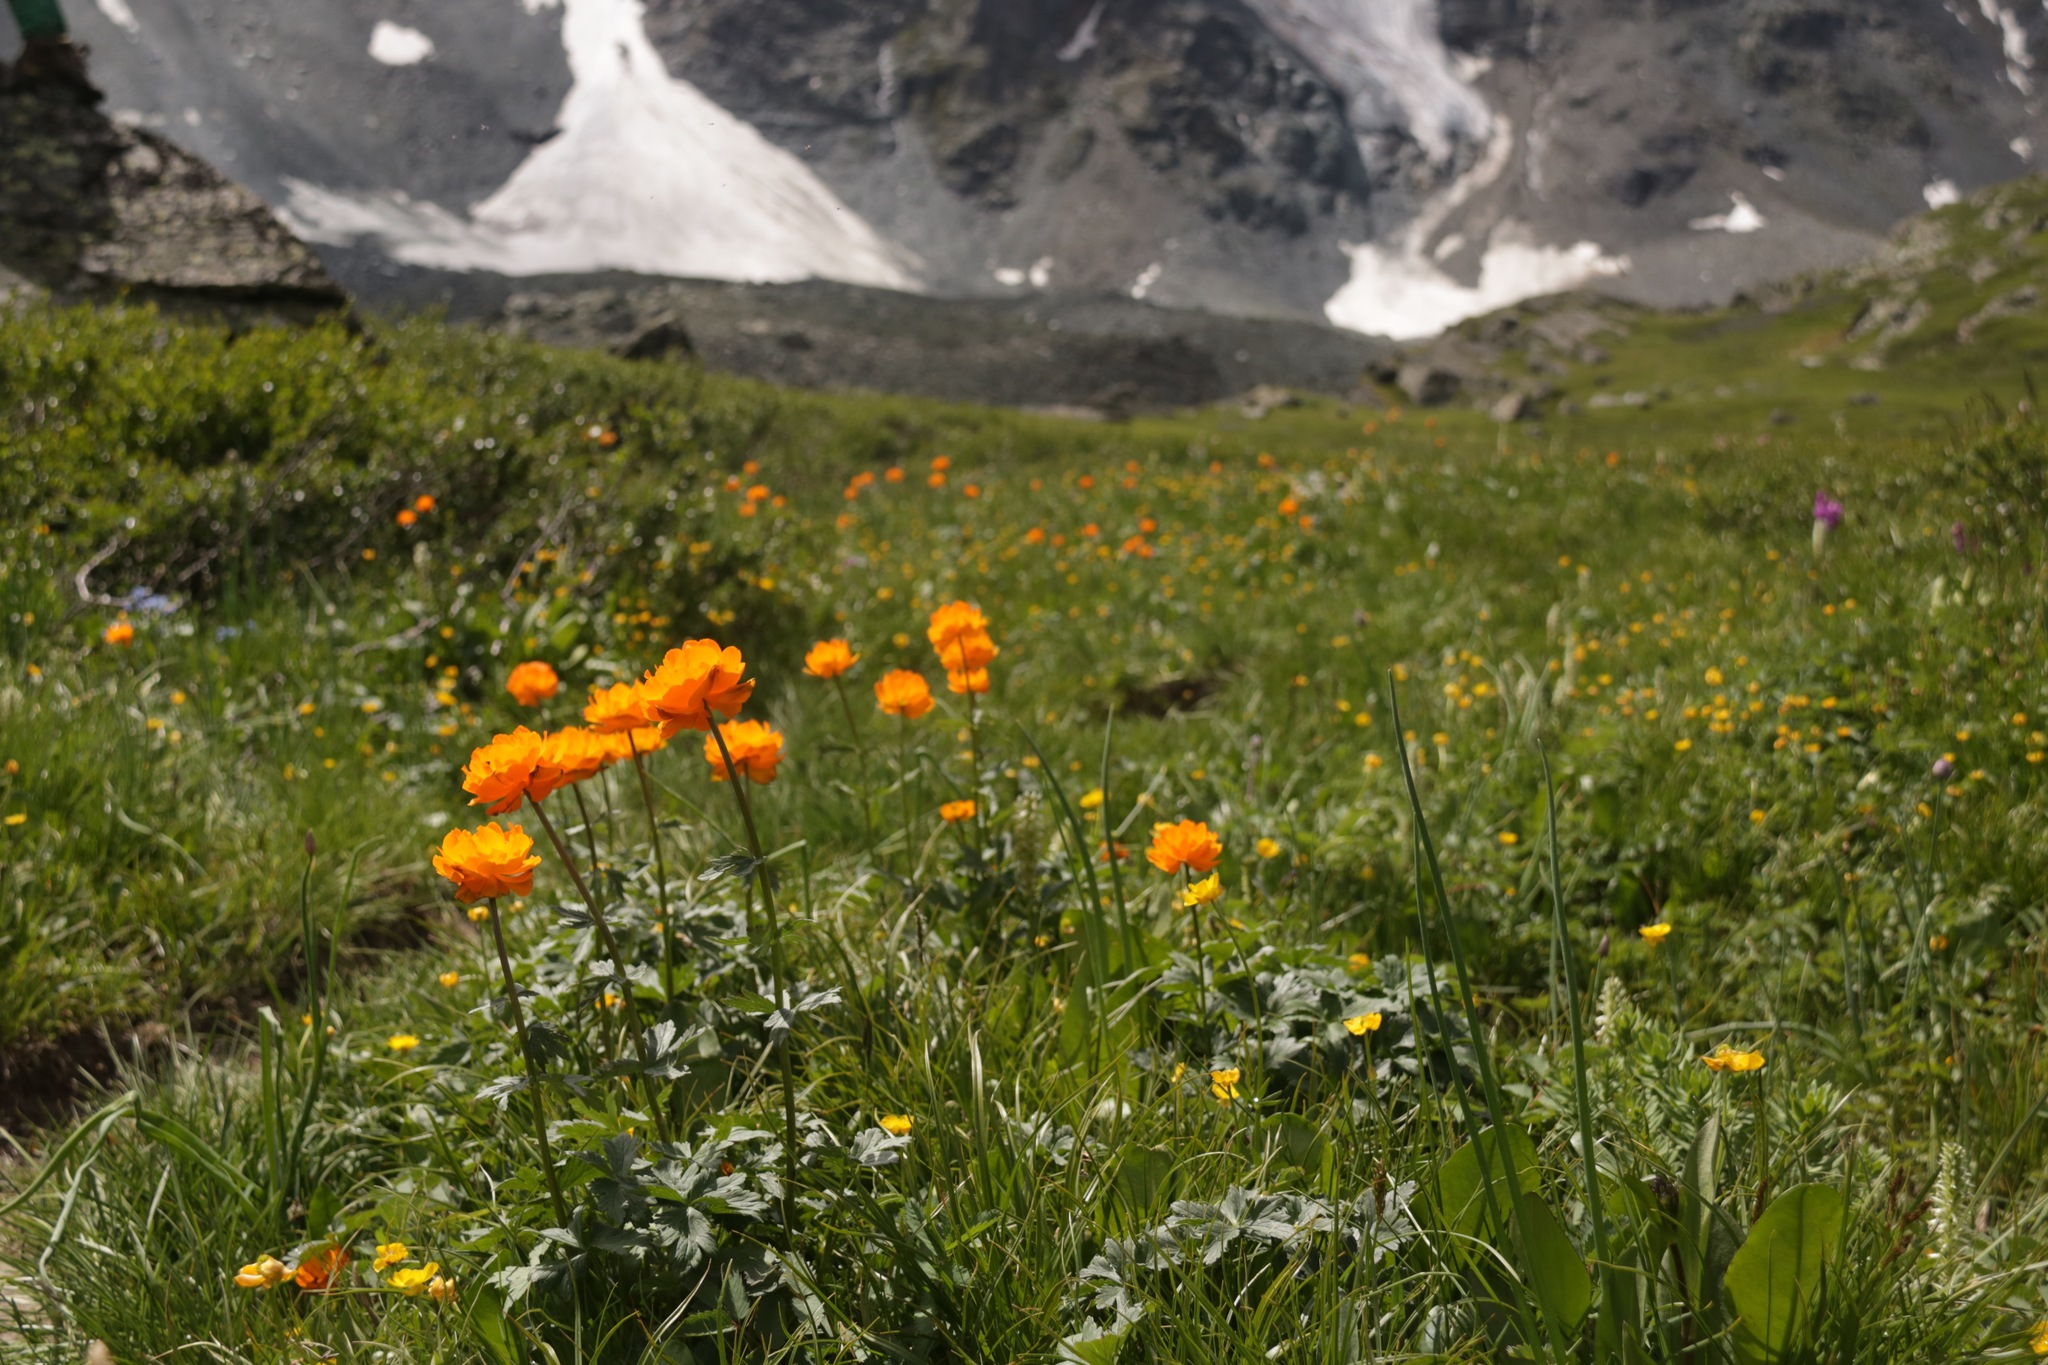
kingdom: Plantae
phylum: Tracheophyta
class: Magnoliopsida
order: Ranunculales
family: Ranunculaceae
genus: Trollius
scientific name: Trollius asiaticus
